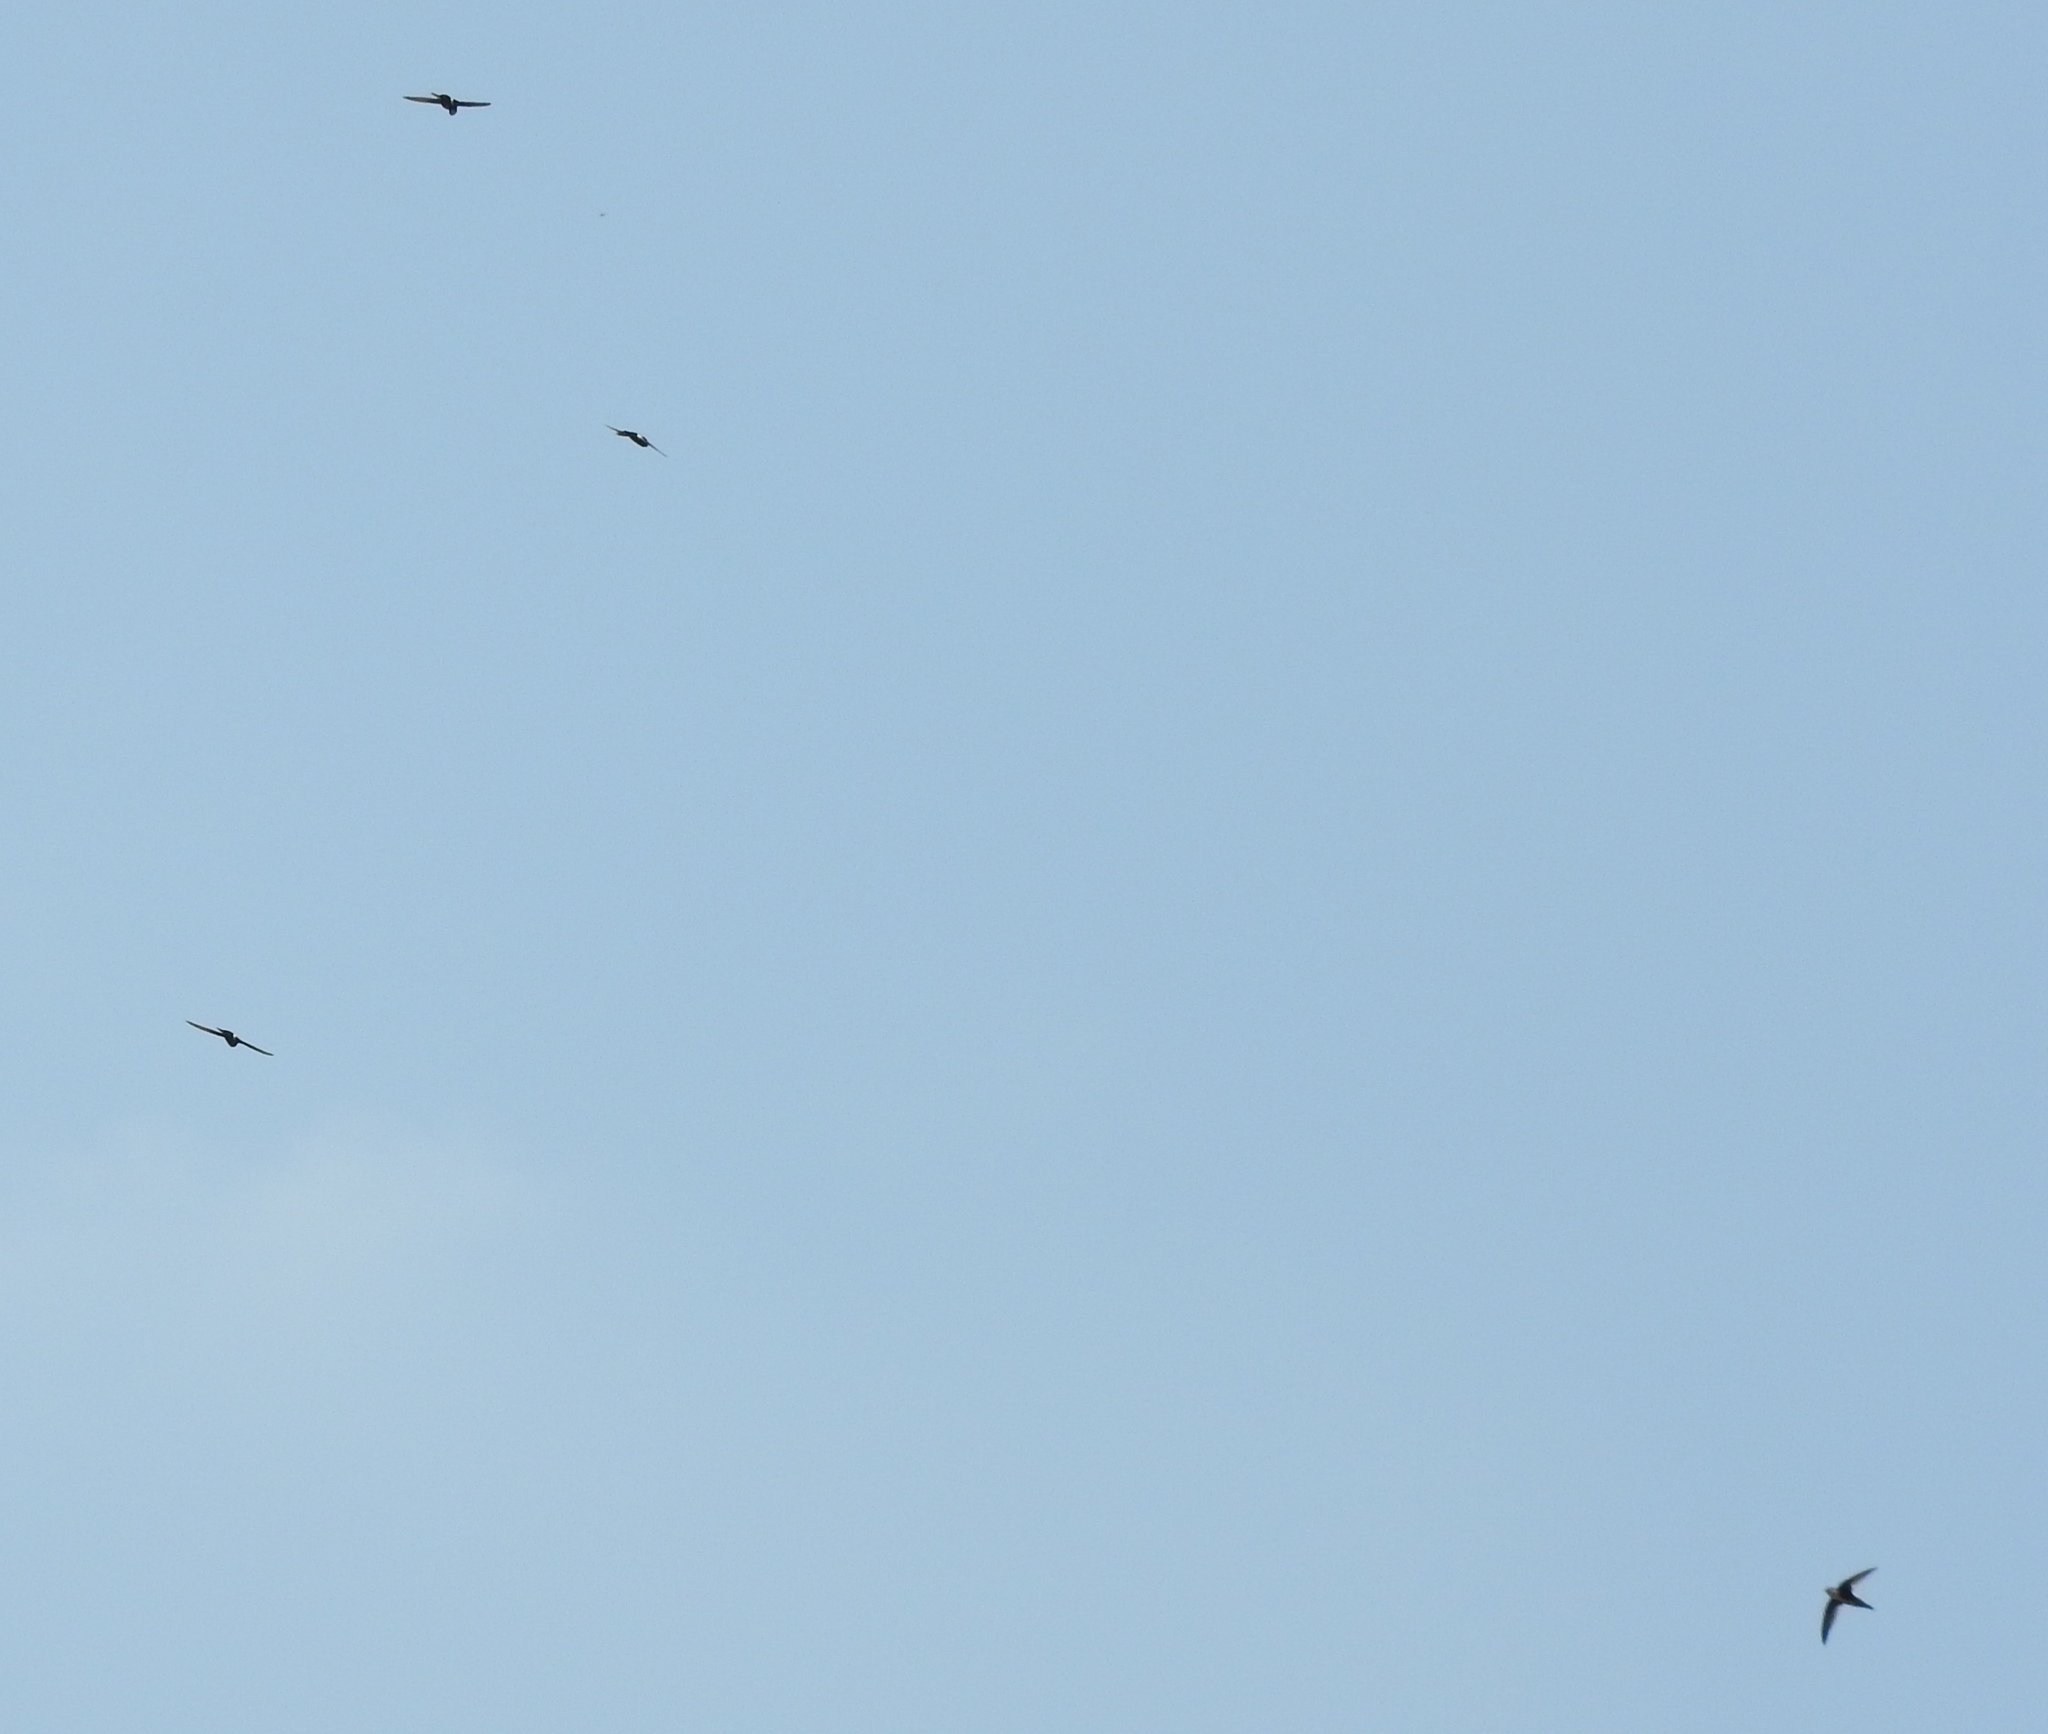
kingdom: Animalia
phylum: Chordata
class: Aves
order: Apodiformes
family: Apodidae
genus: Aeronautes
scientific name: Aeronautes saxatalis
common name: White-throated swift
